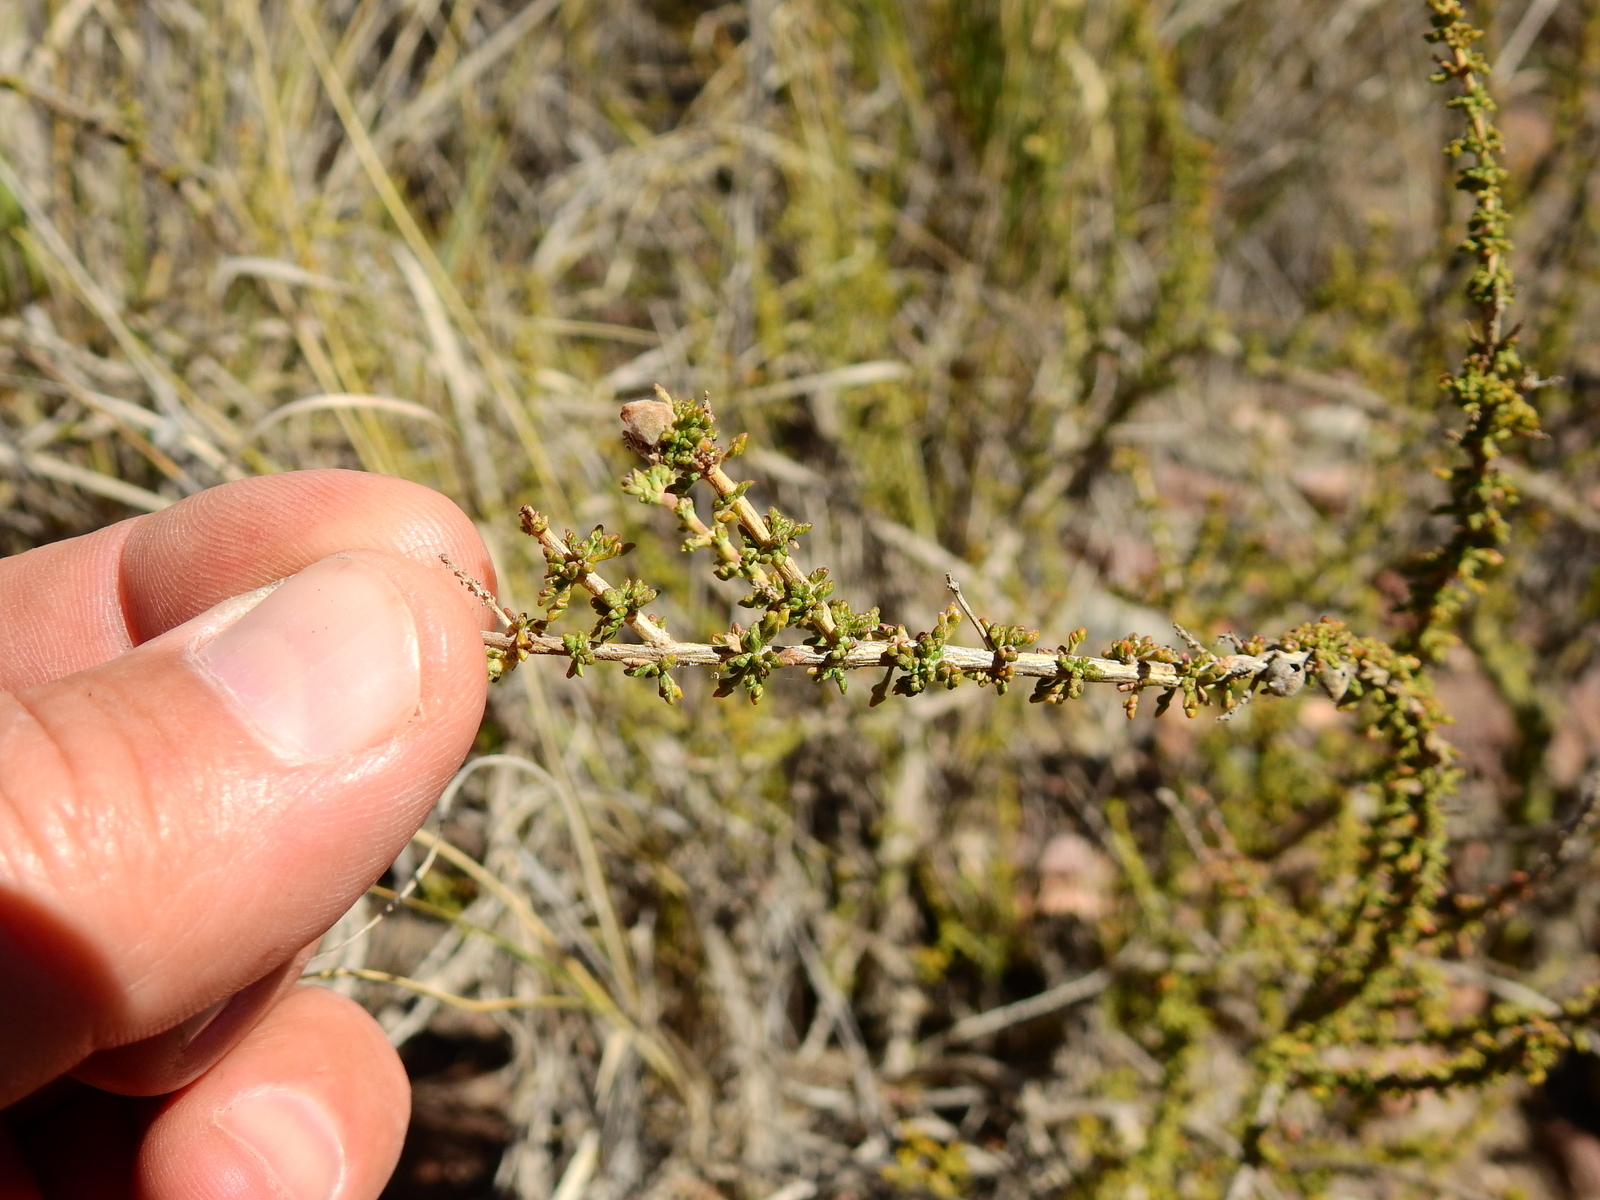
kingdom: Plantae
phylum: Tracheophyta
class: Magnoliopsida
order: Lamiales
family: Verbenaceae
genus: Acantholippia
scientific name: Acantholippia seriphioides
